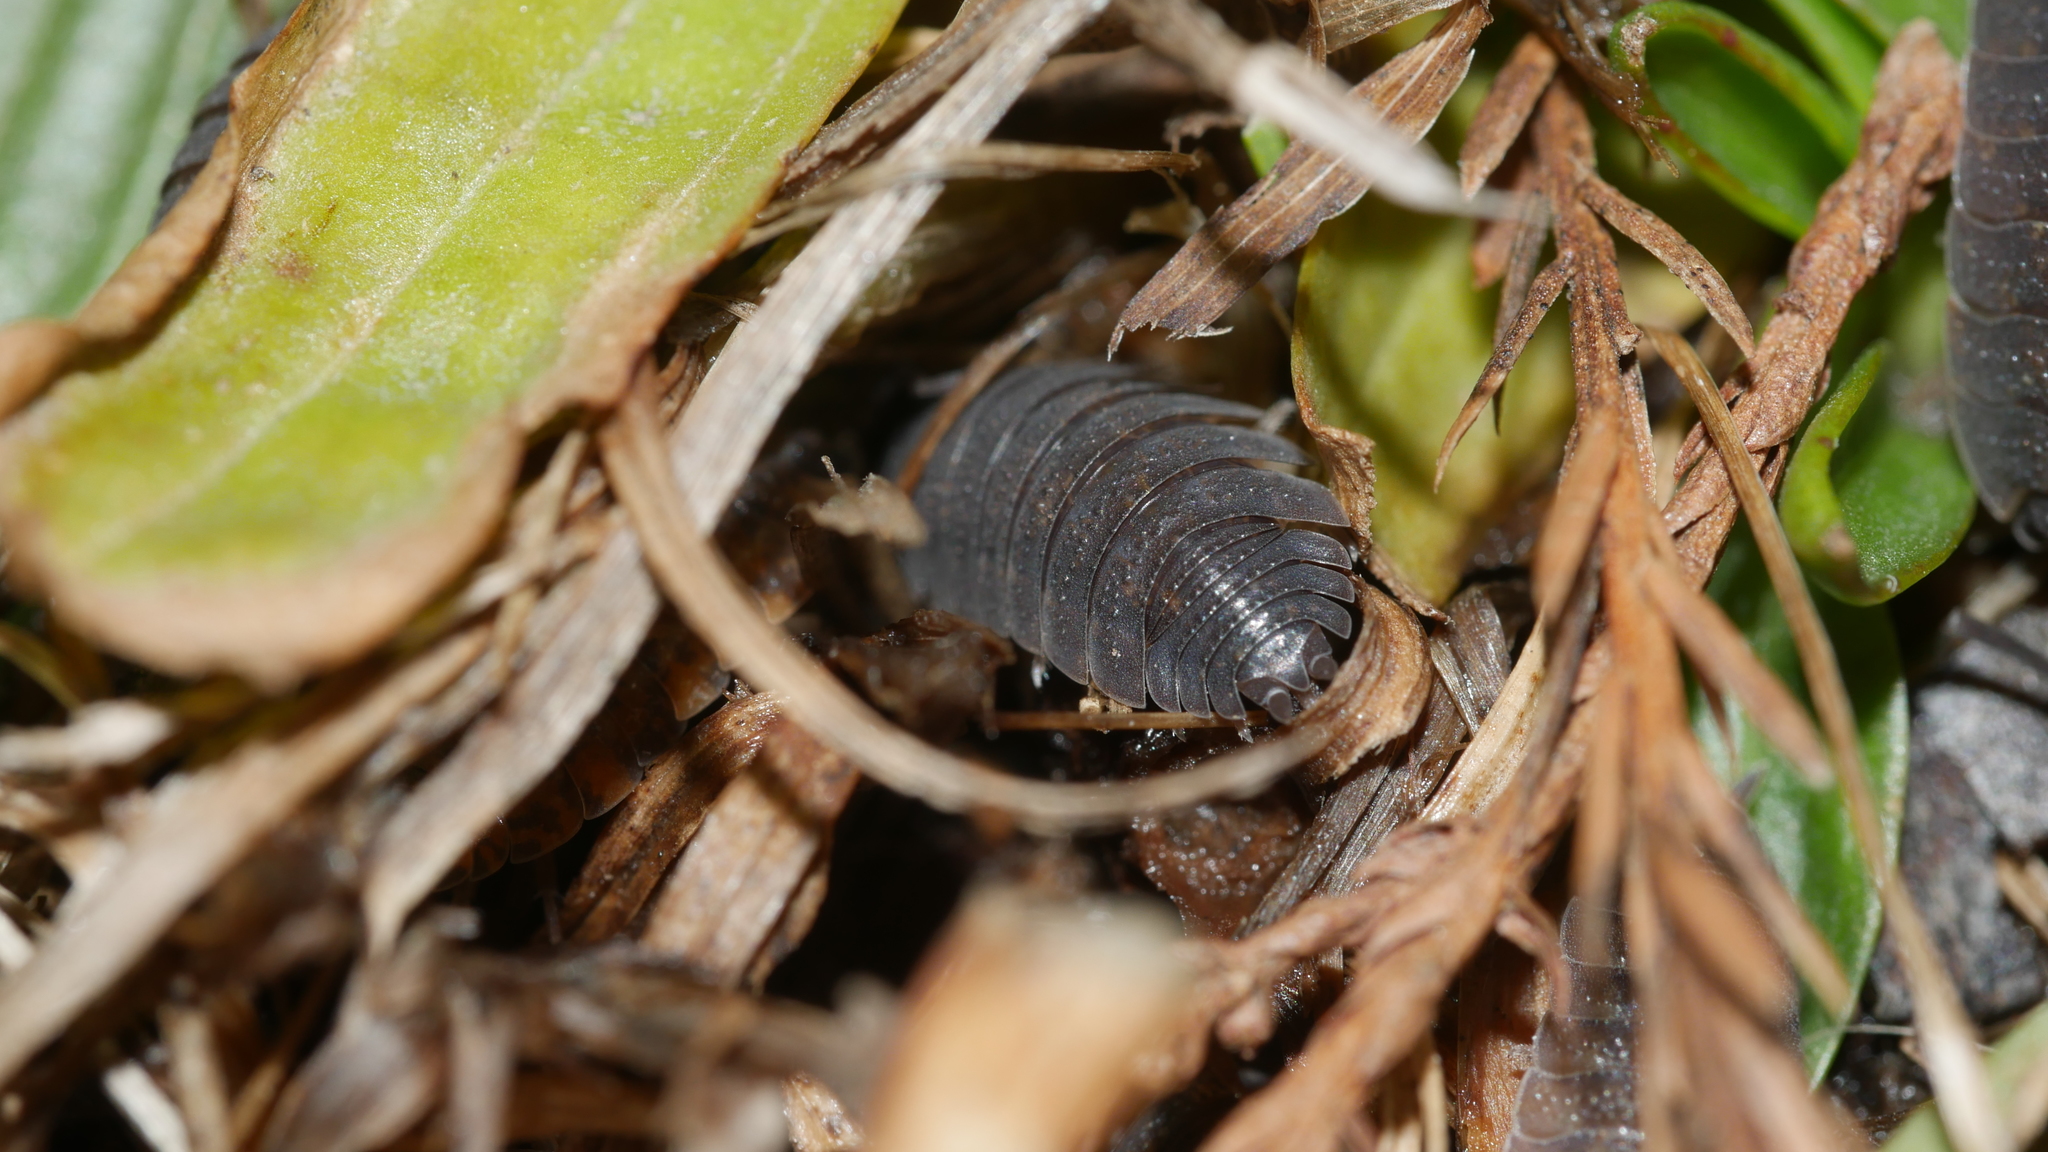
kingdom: Animalia
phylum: Arthropoda
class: Malacostraca
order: Isopoda
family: Porcellionidae
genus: Porcellio
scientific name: Porcellio scaber
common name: Common rough woodlouse
